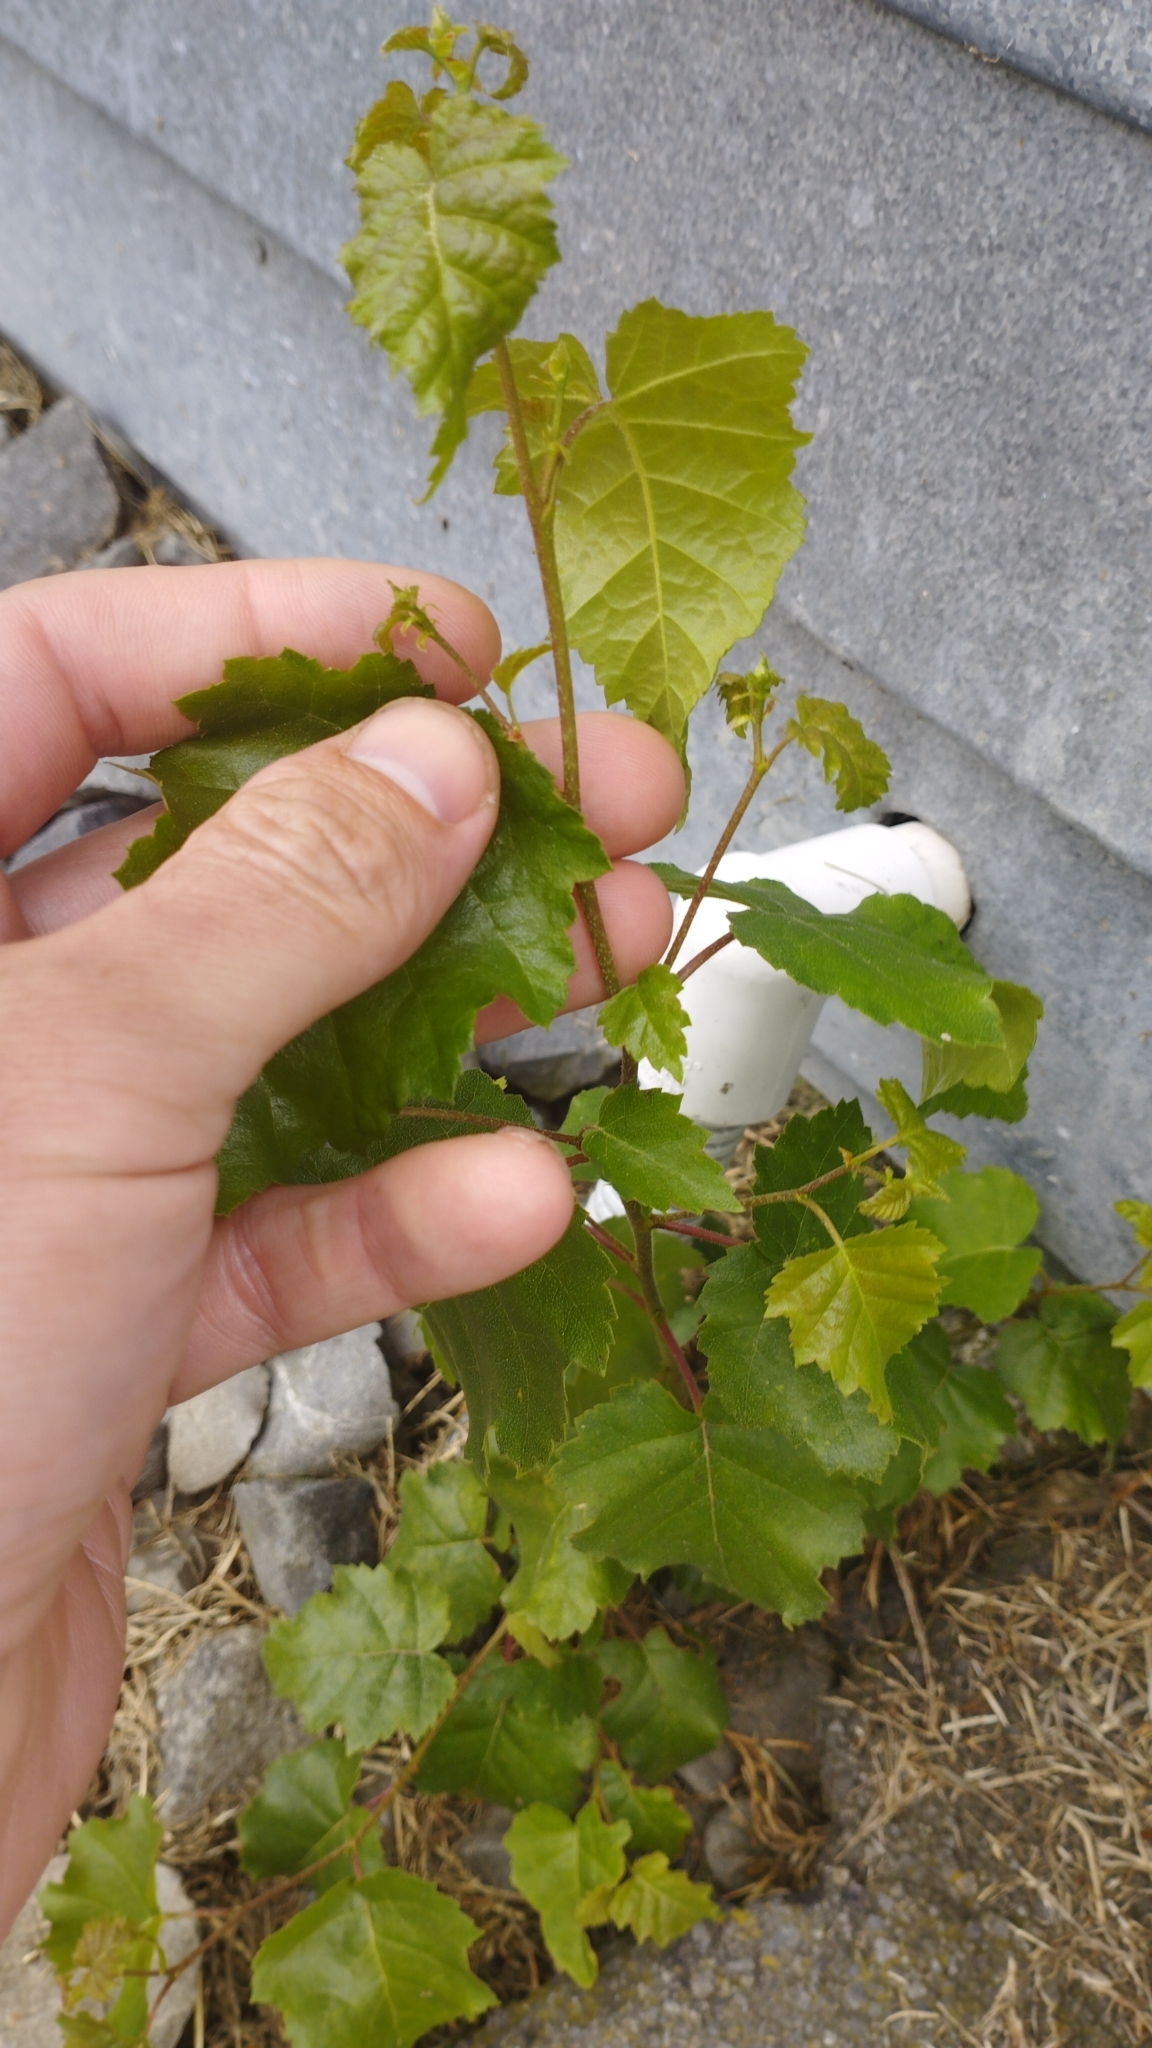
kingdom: Plantae
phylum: Tracheophyta
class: Magnoliopsida
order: Fagales
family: Betulaceae
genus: Betula
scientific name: Betula pendula
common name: Silver birch
